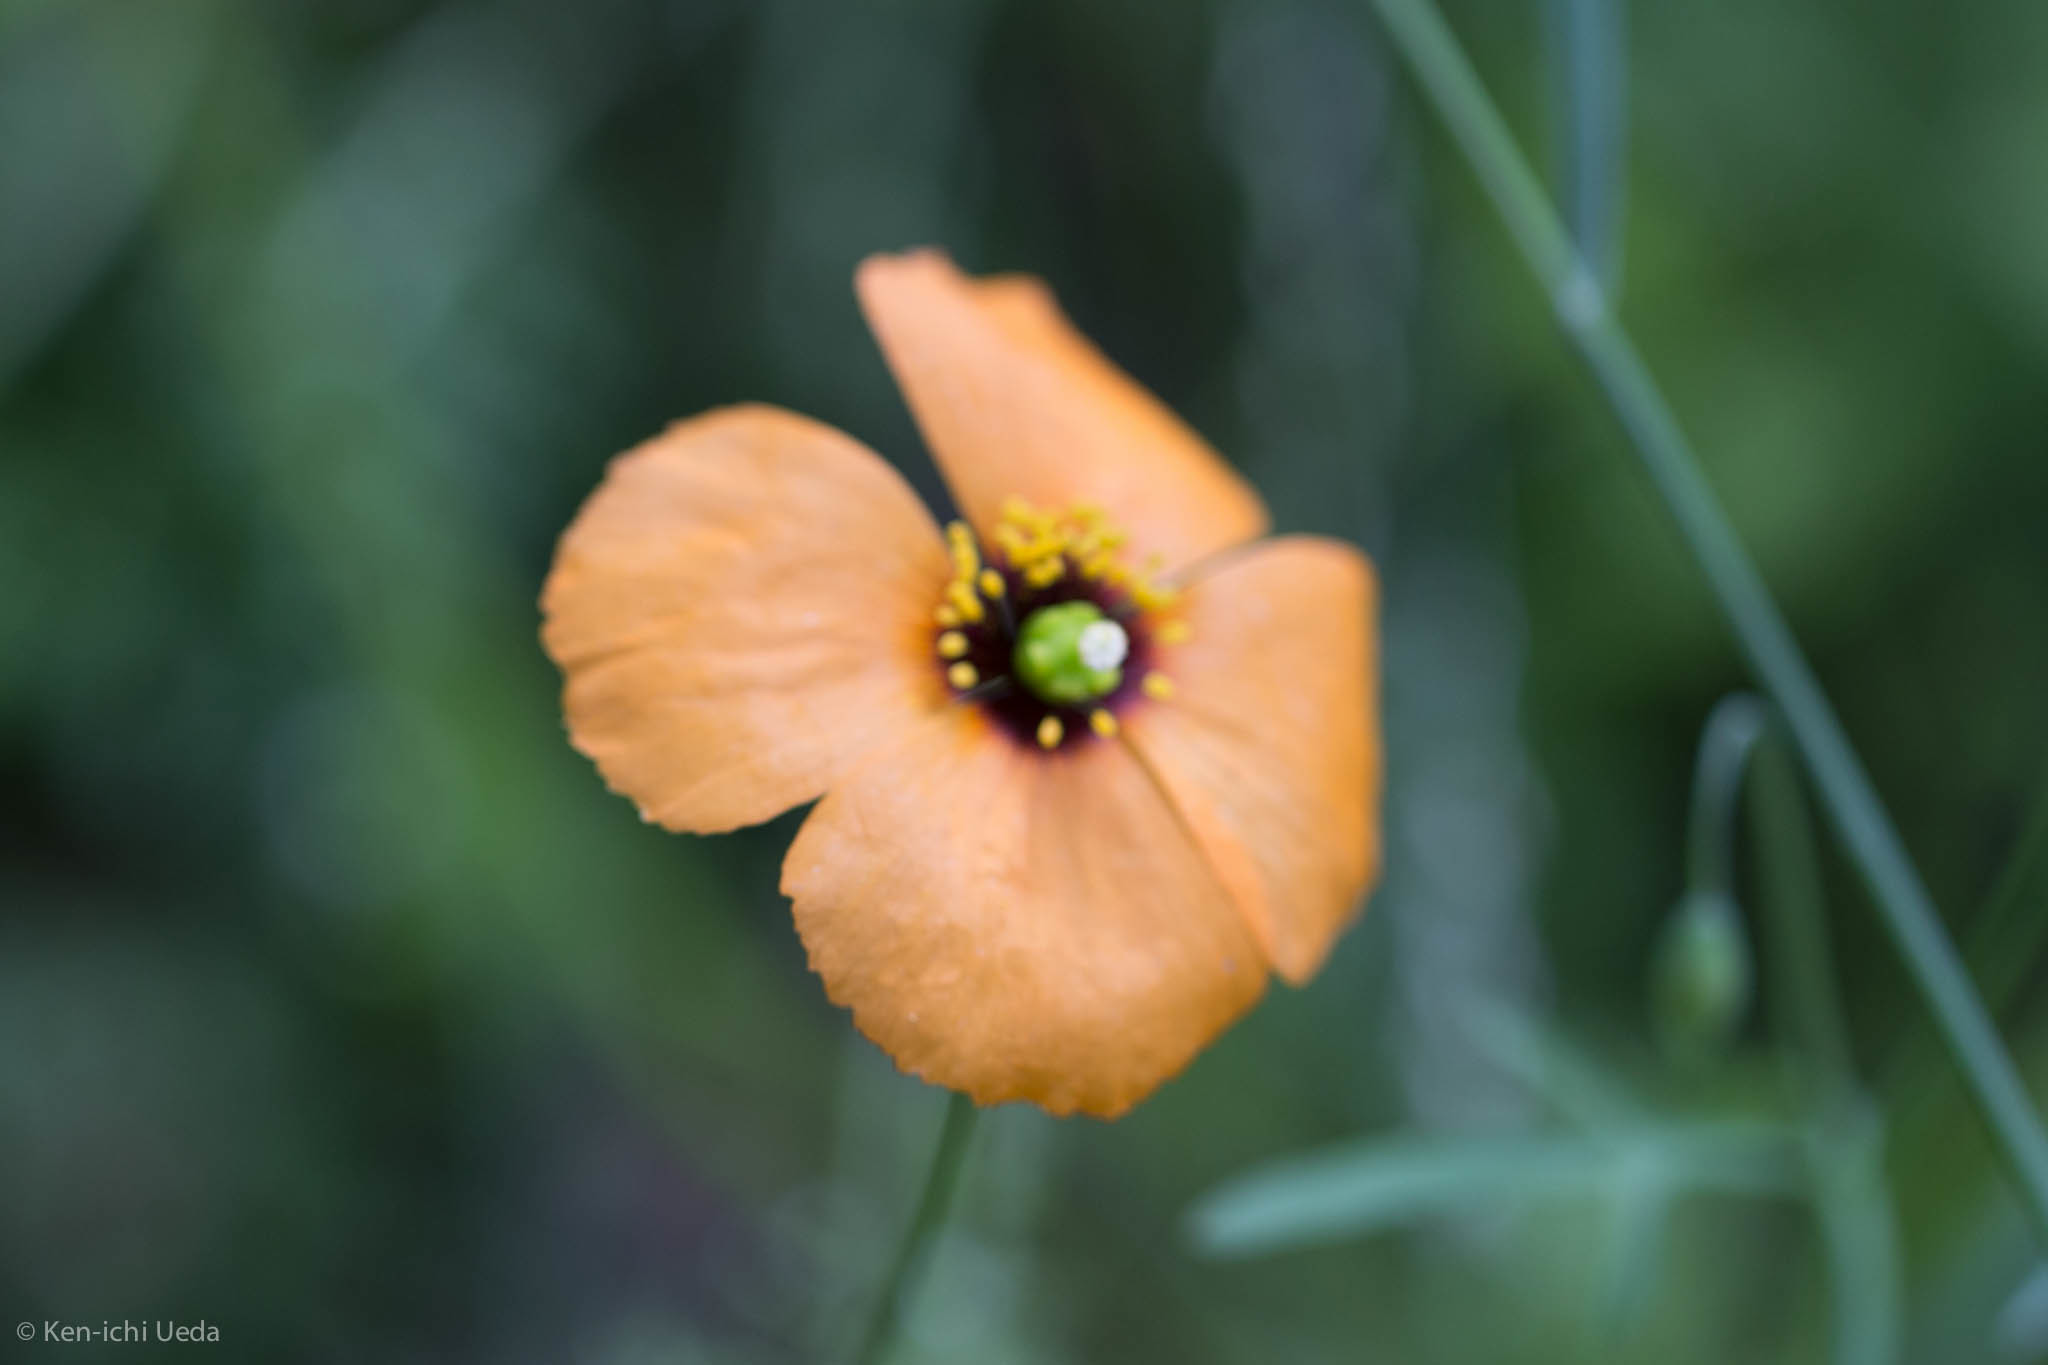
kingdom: Plantae
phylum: Tracheophyta
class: Magnoliopsida
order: Ranunculales
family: Papaveraceae
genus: Stylomecon
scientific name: Stylomecon heterophylla
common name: Flaming-poppy
